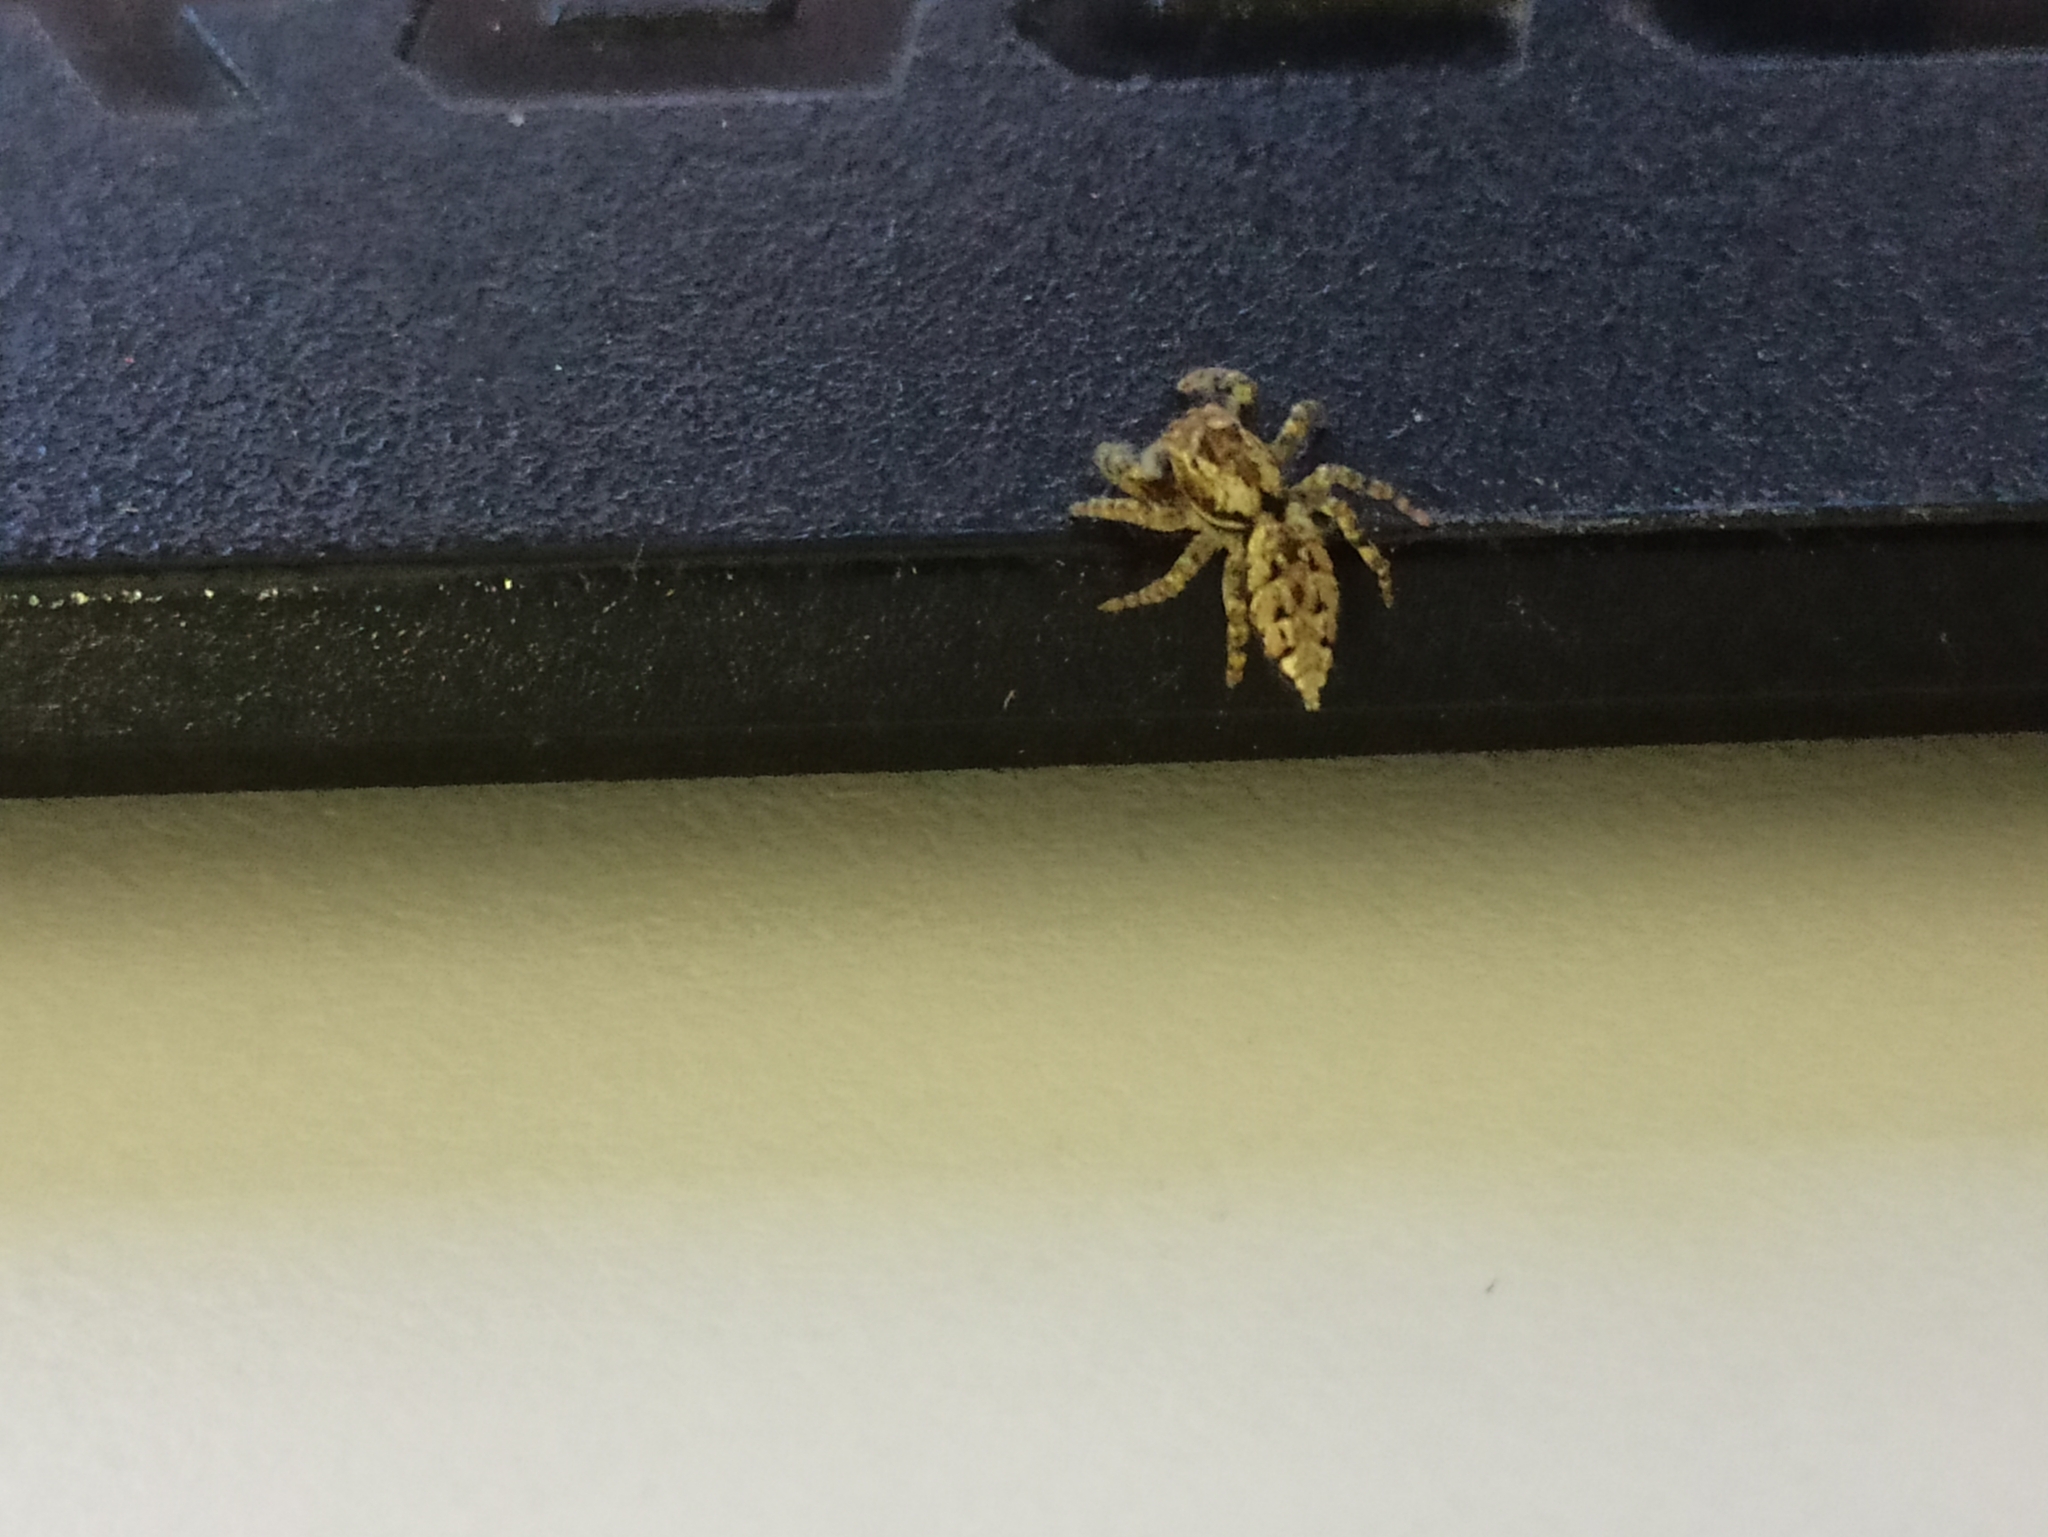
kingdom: Animalia
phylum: Arthropoda
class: Arachnida
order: Araneae
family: Salticidae
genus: Marpissa
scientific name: Marpissa muscosa
